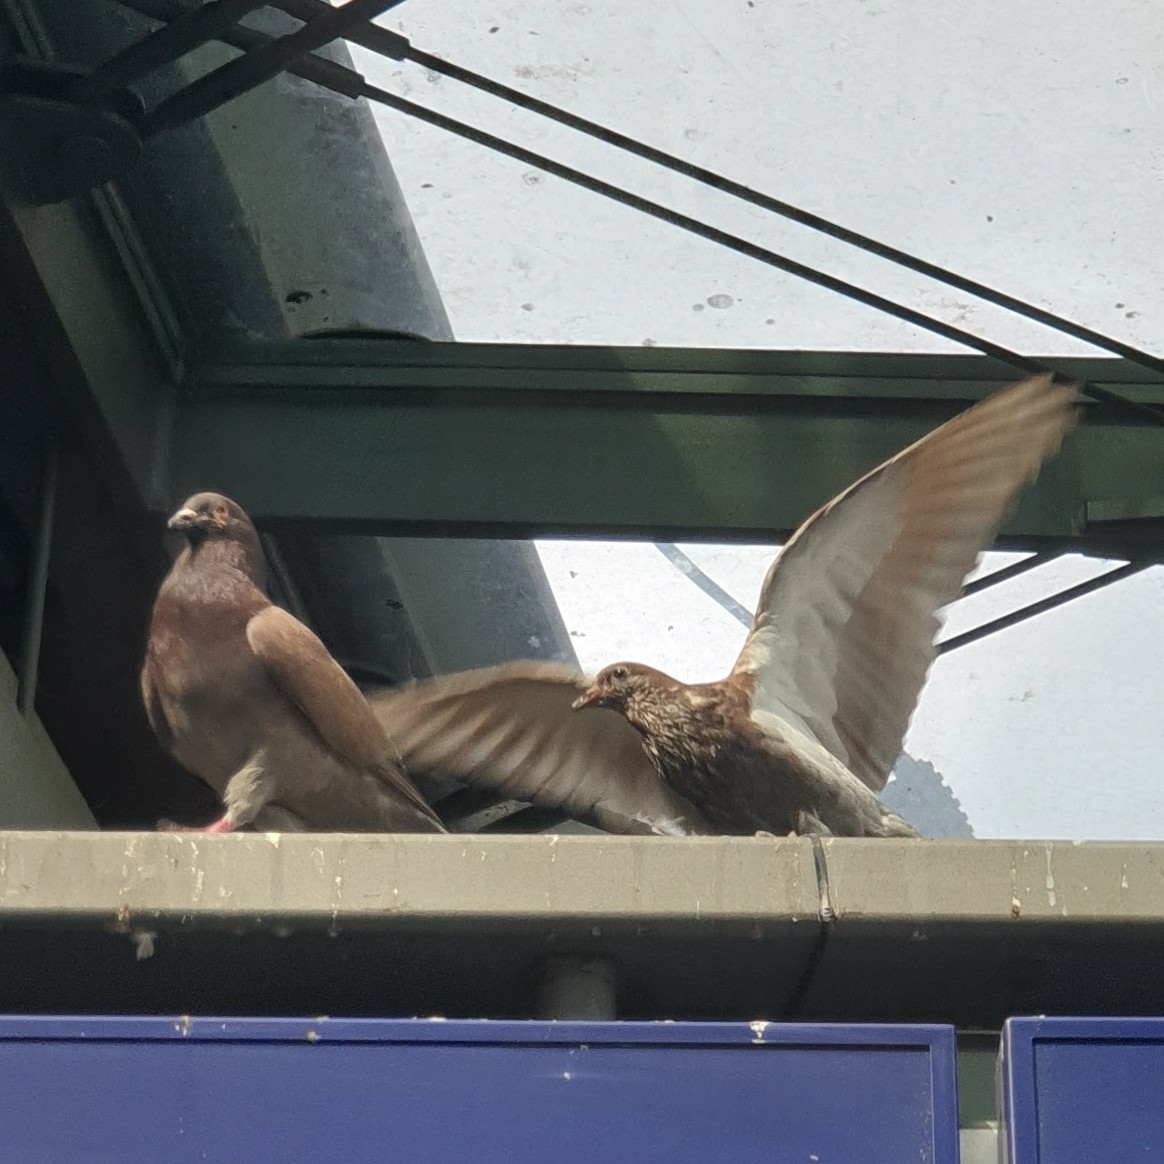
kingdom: Animalia
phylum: Chordata
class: Aves
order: Columbiformes
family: Columbidae
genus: Columba
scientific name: Columba livia
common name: Rock pigeon
